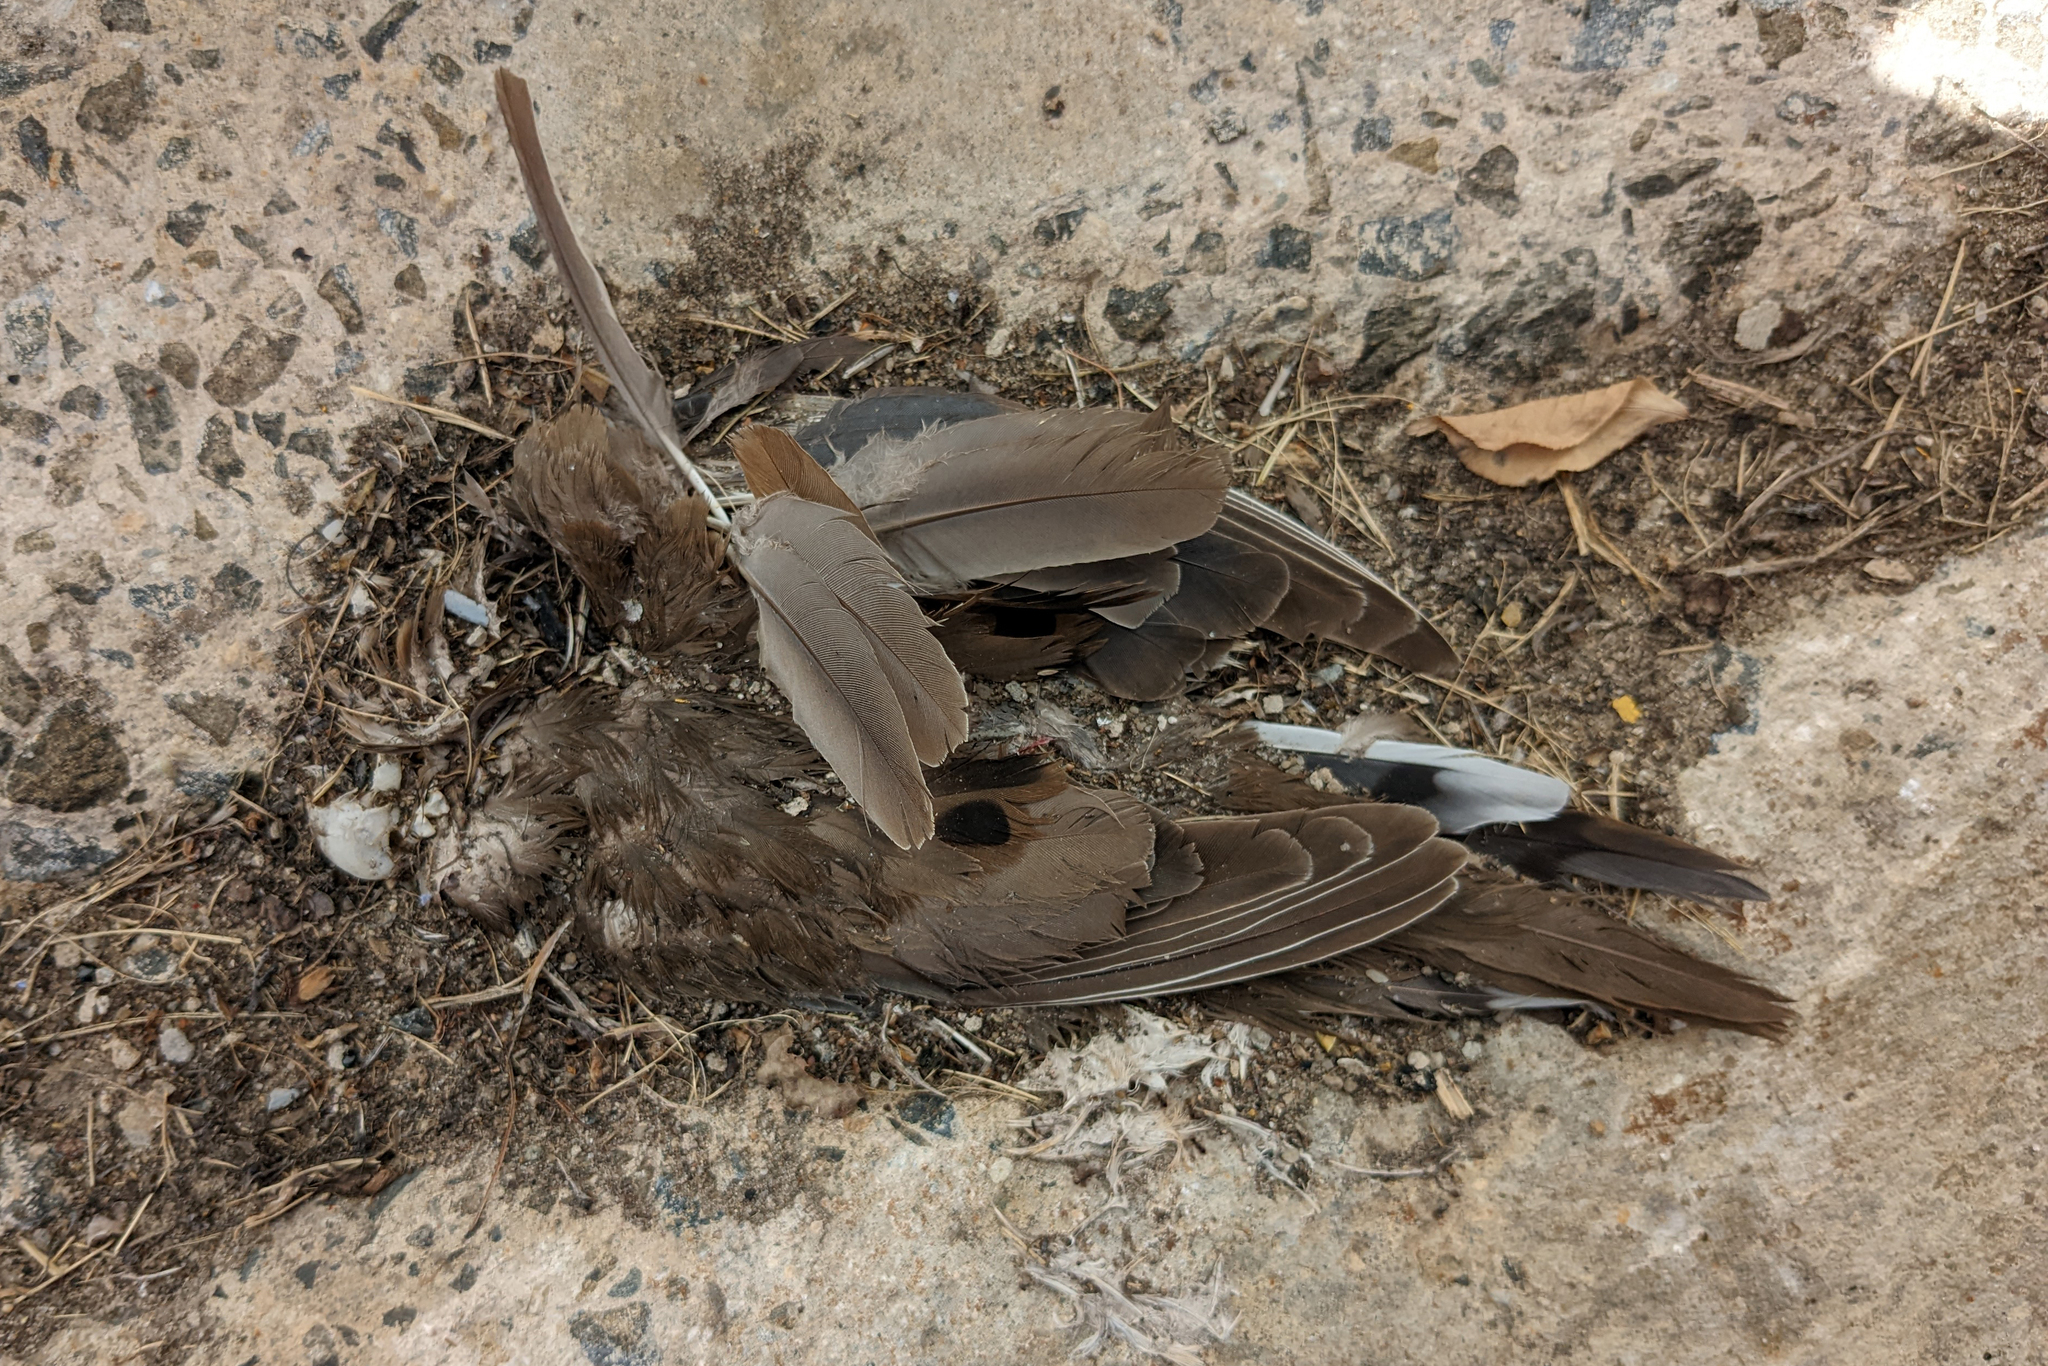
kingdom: Animalia
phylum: Chordata
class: Aves
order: Columbiformes
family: Columbidae
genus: Zenaida
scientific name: Zenaida macroura
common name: Mourning dove
